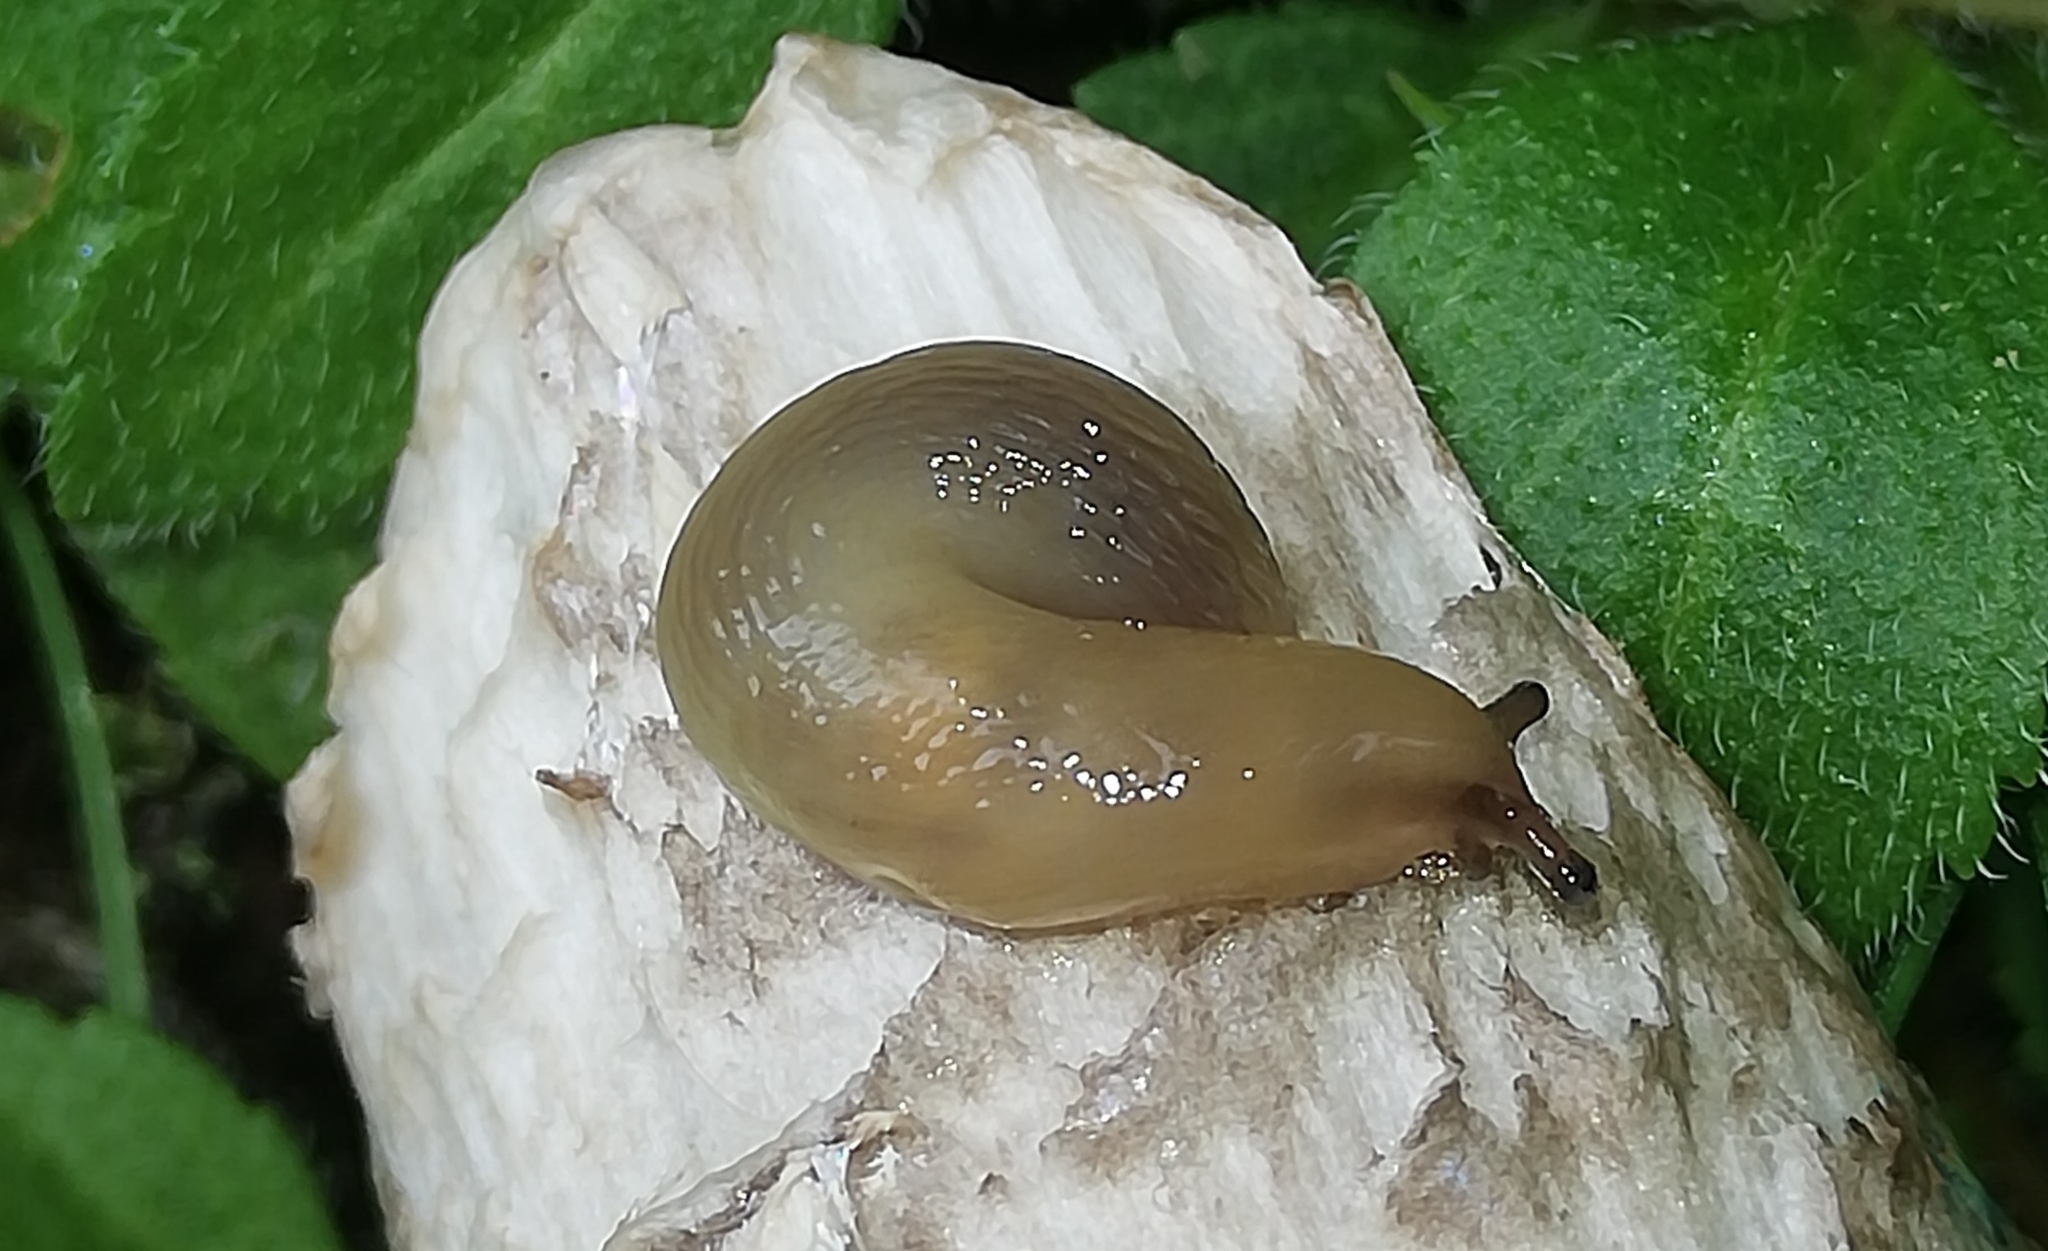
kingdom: Animalia
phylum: Mollusca
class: Gastropoda
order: Stylommatophora
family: Limacidae
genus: Malacolimax
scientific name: Malacolimax tenellus
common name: Lemon slug
